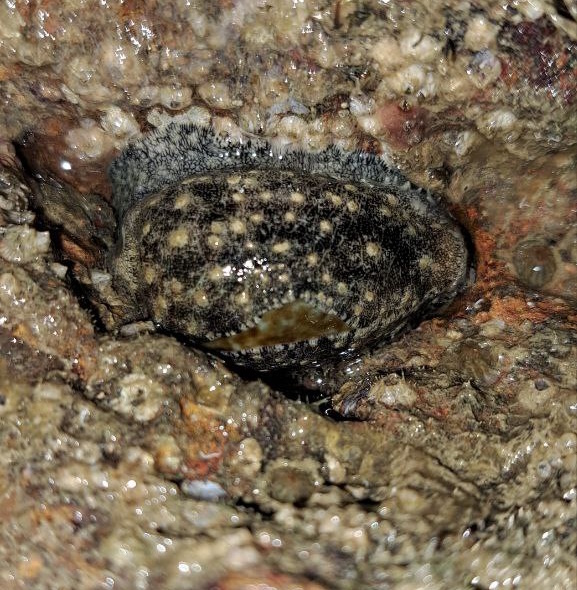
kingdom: Animalia
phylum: Mollusca
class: Gastropoda
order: Littorinimorpha
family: Cypraeidae
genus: Erronea
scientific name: Erronea errones
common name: Mistaken cowrie
